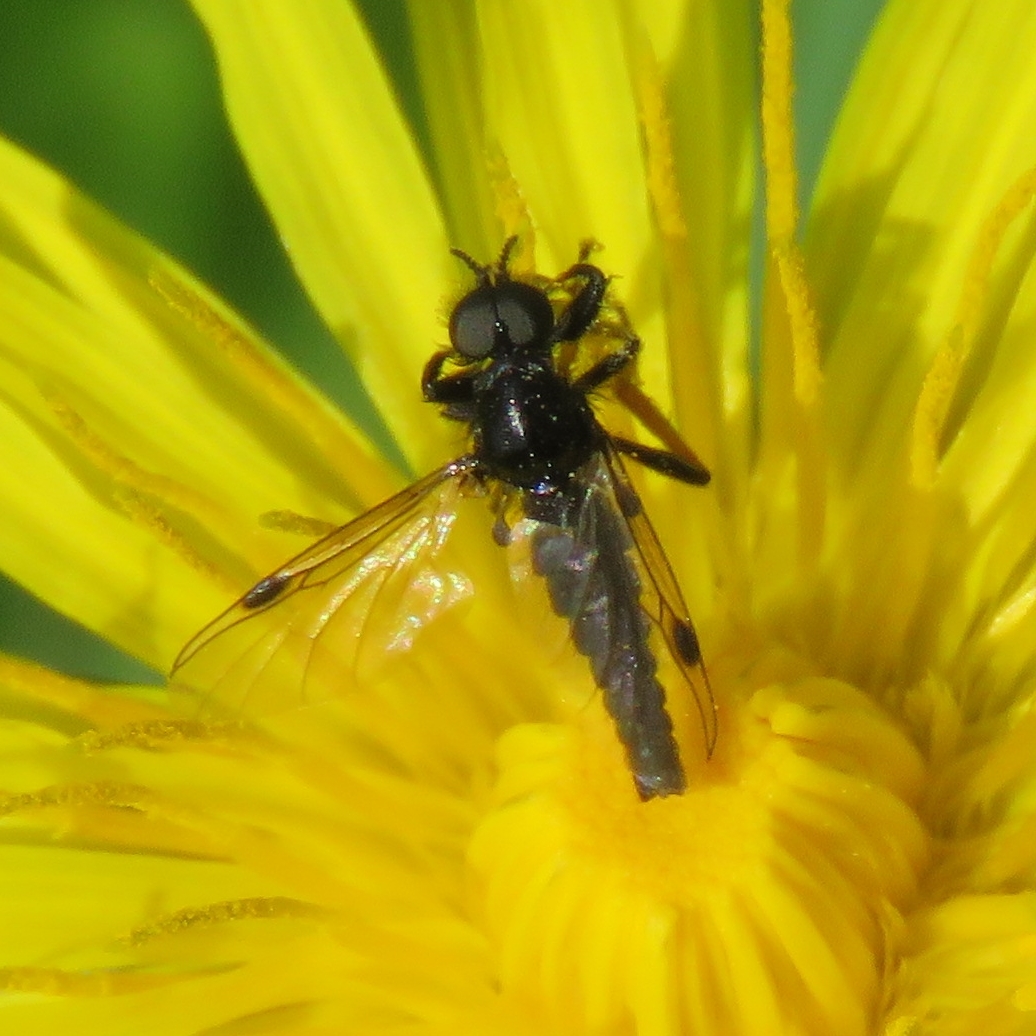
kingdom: Animalia
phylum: Arthropoda
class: Insecta
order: Diptera
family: Bibionidae
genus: Bibio
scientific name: Bibio johannis
